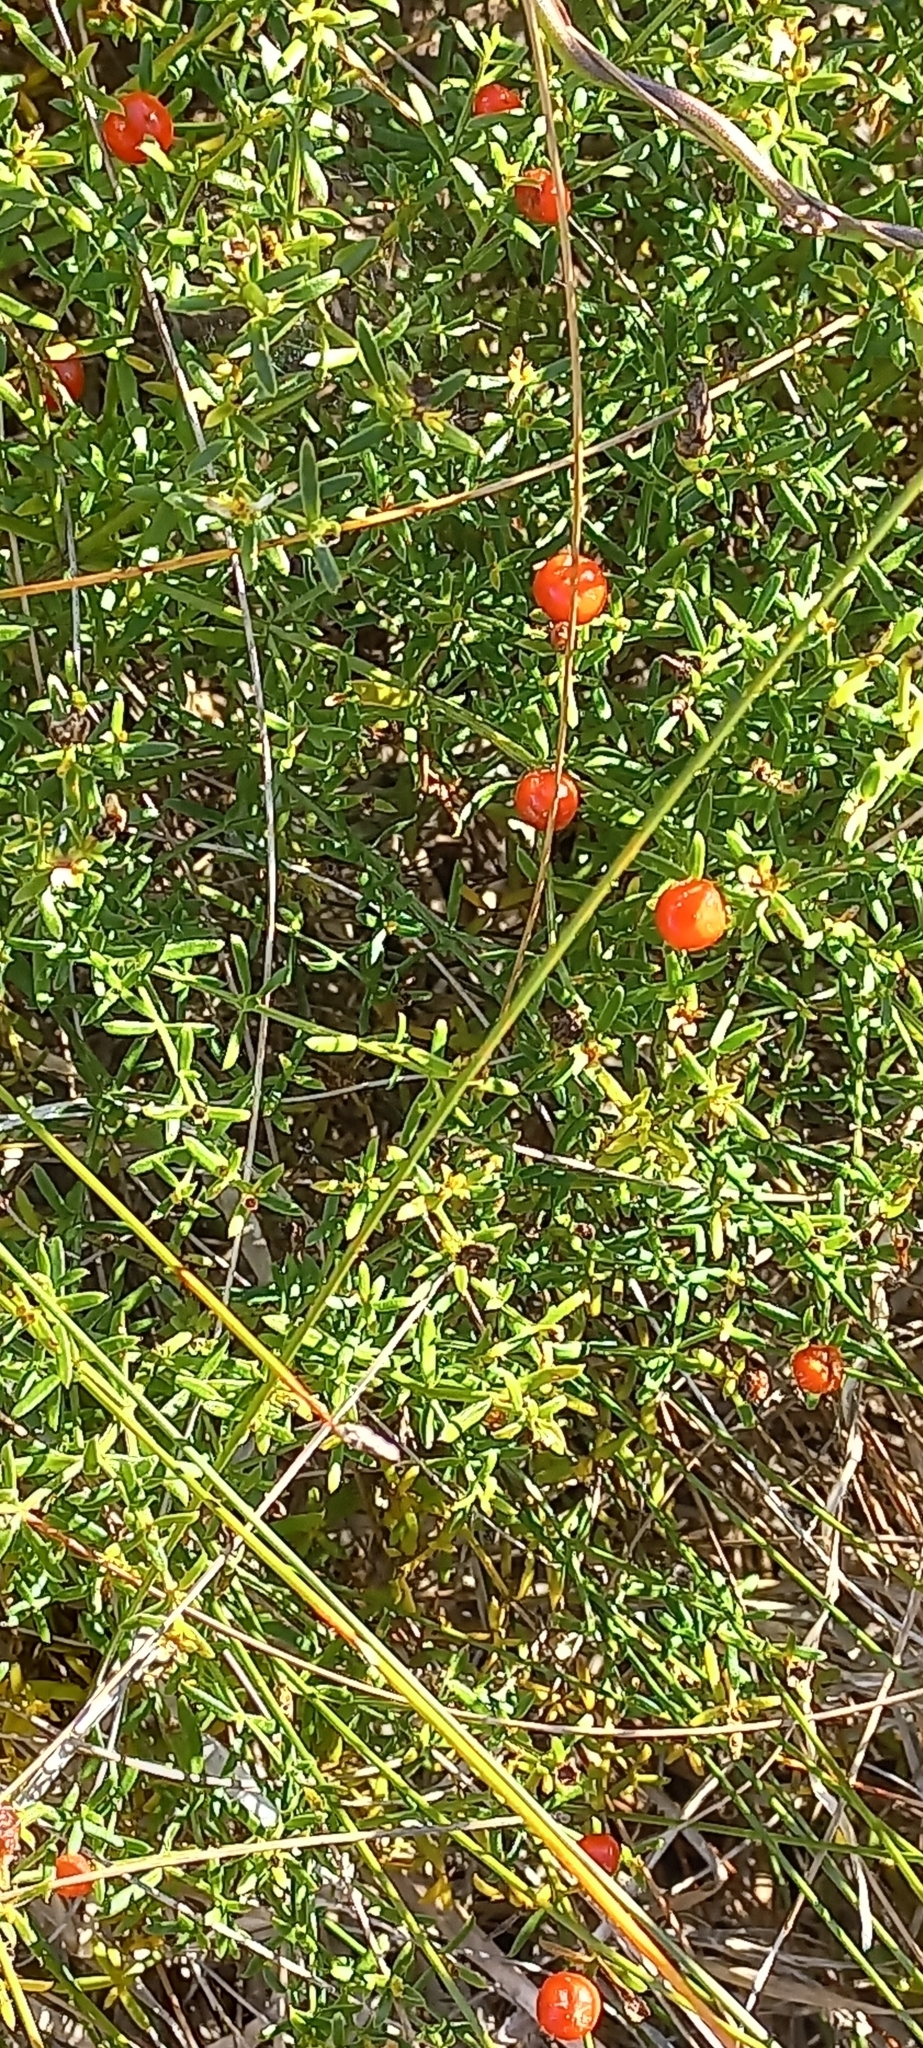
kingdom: Plantae
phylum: Tracheophyta
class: Magnoliopsida
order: Gentianales
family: Gentianaceae
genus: Chironia
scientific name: Chironia baccifera
